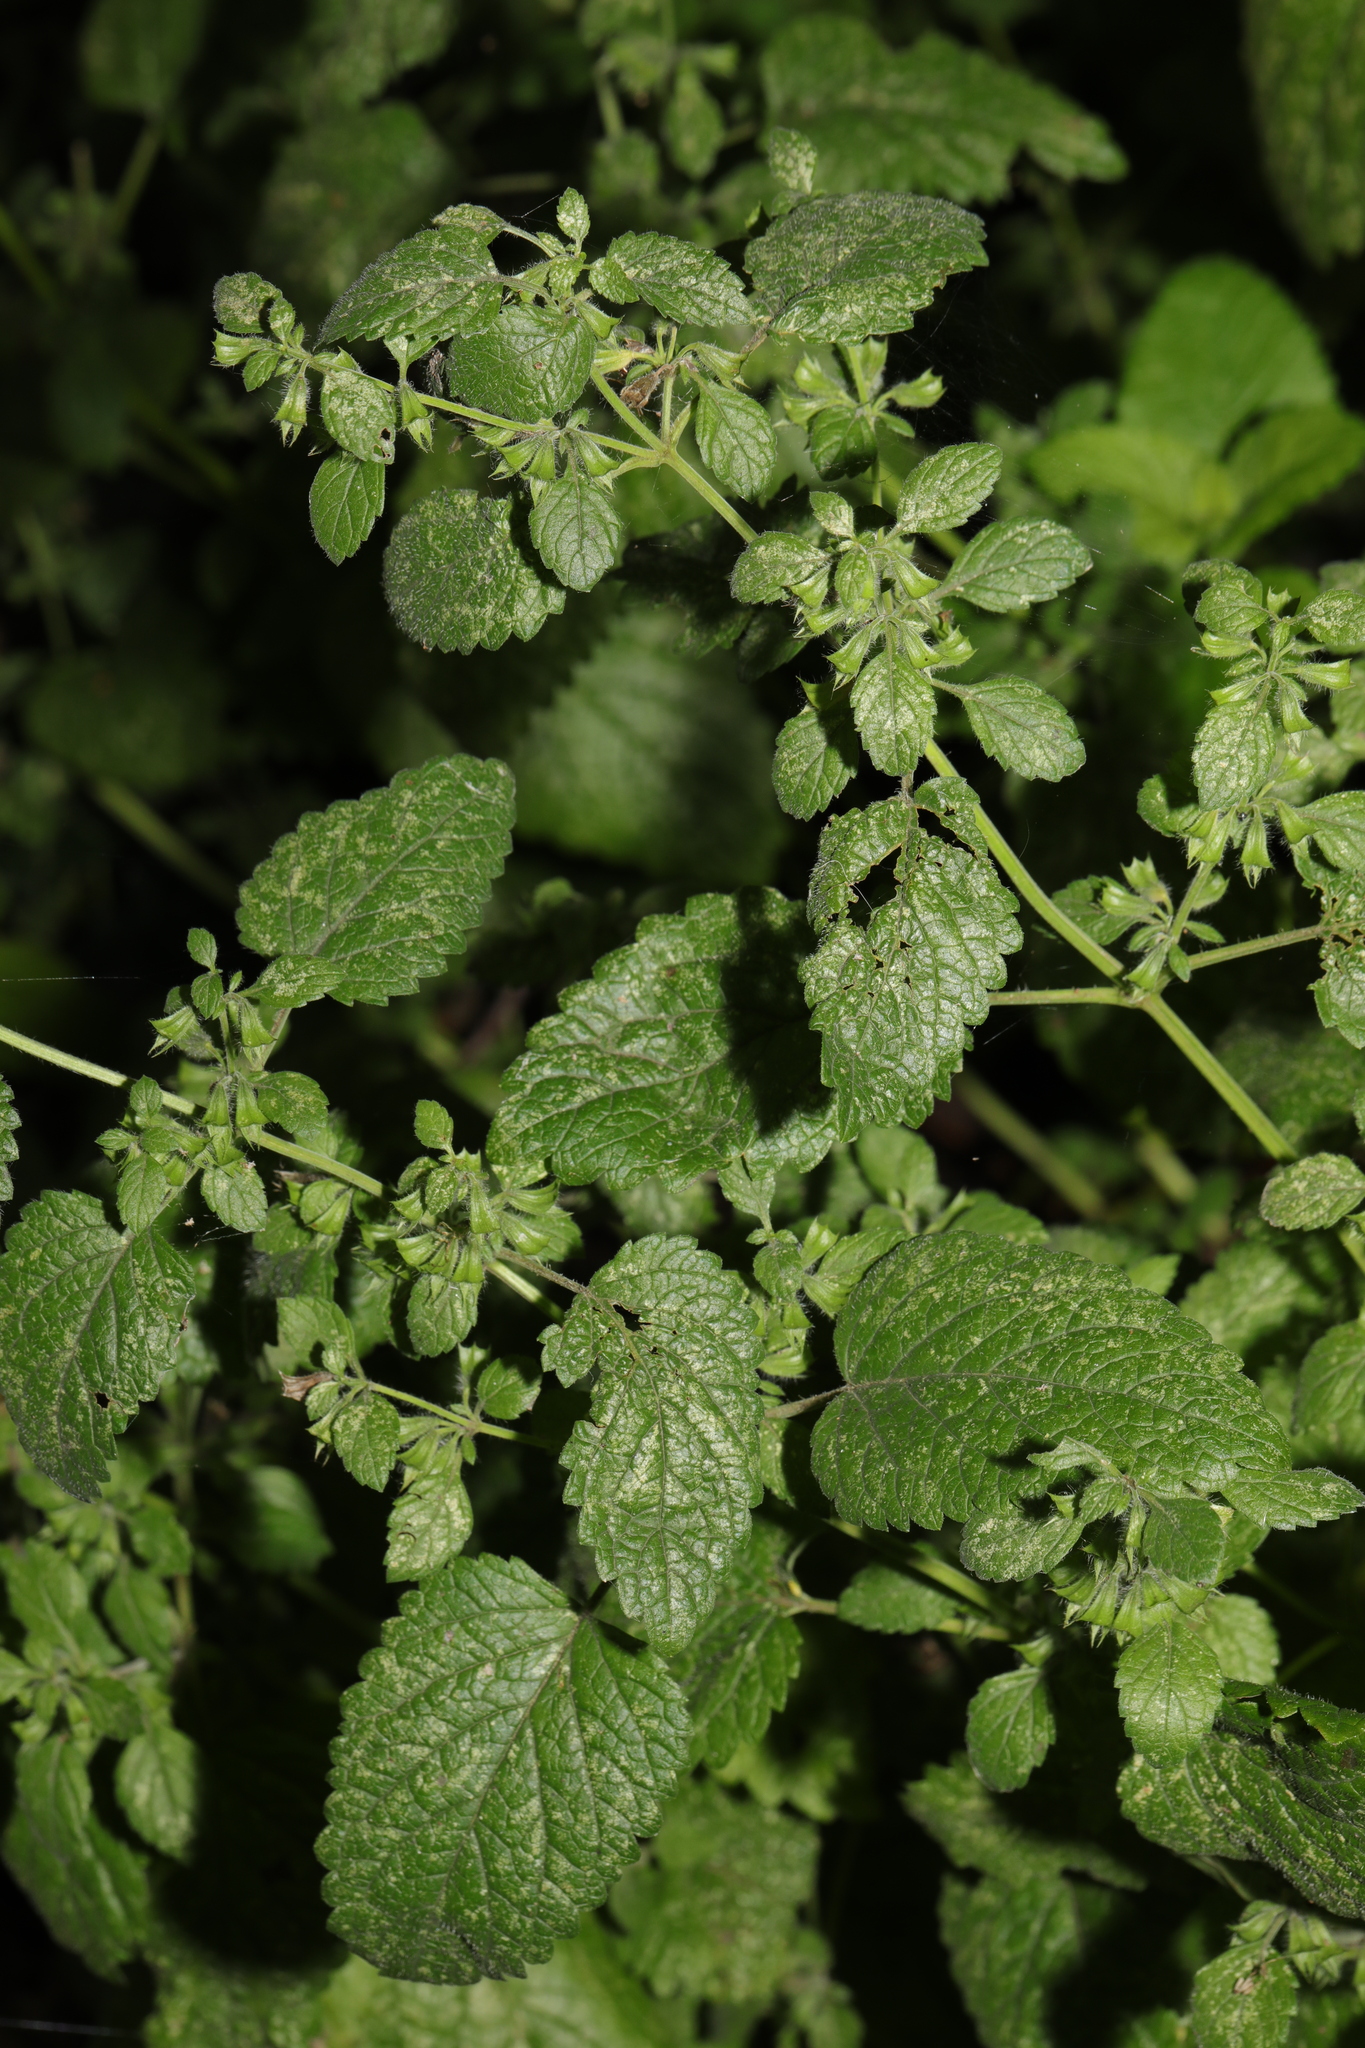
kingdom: Plantae
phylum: Tracheophyta
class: Magnoliopsida
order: Lamiales
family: Lamiaceae
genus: Melissa
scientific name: Melissa officinalis
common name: Balm
